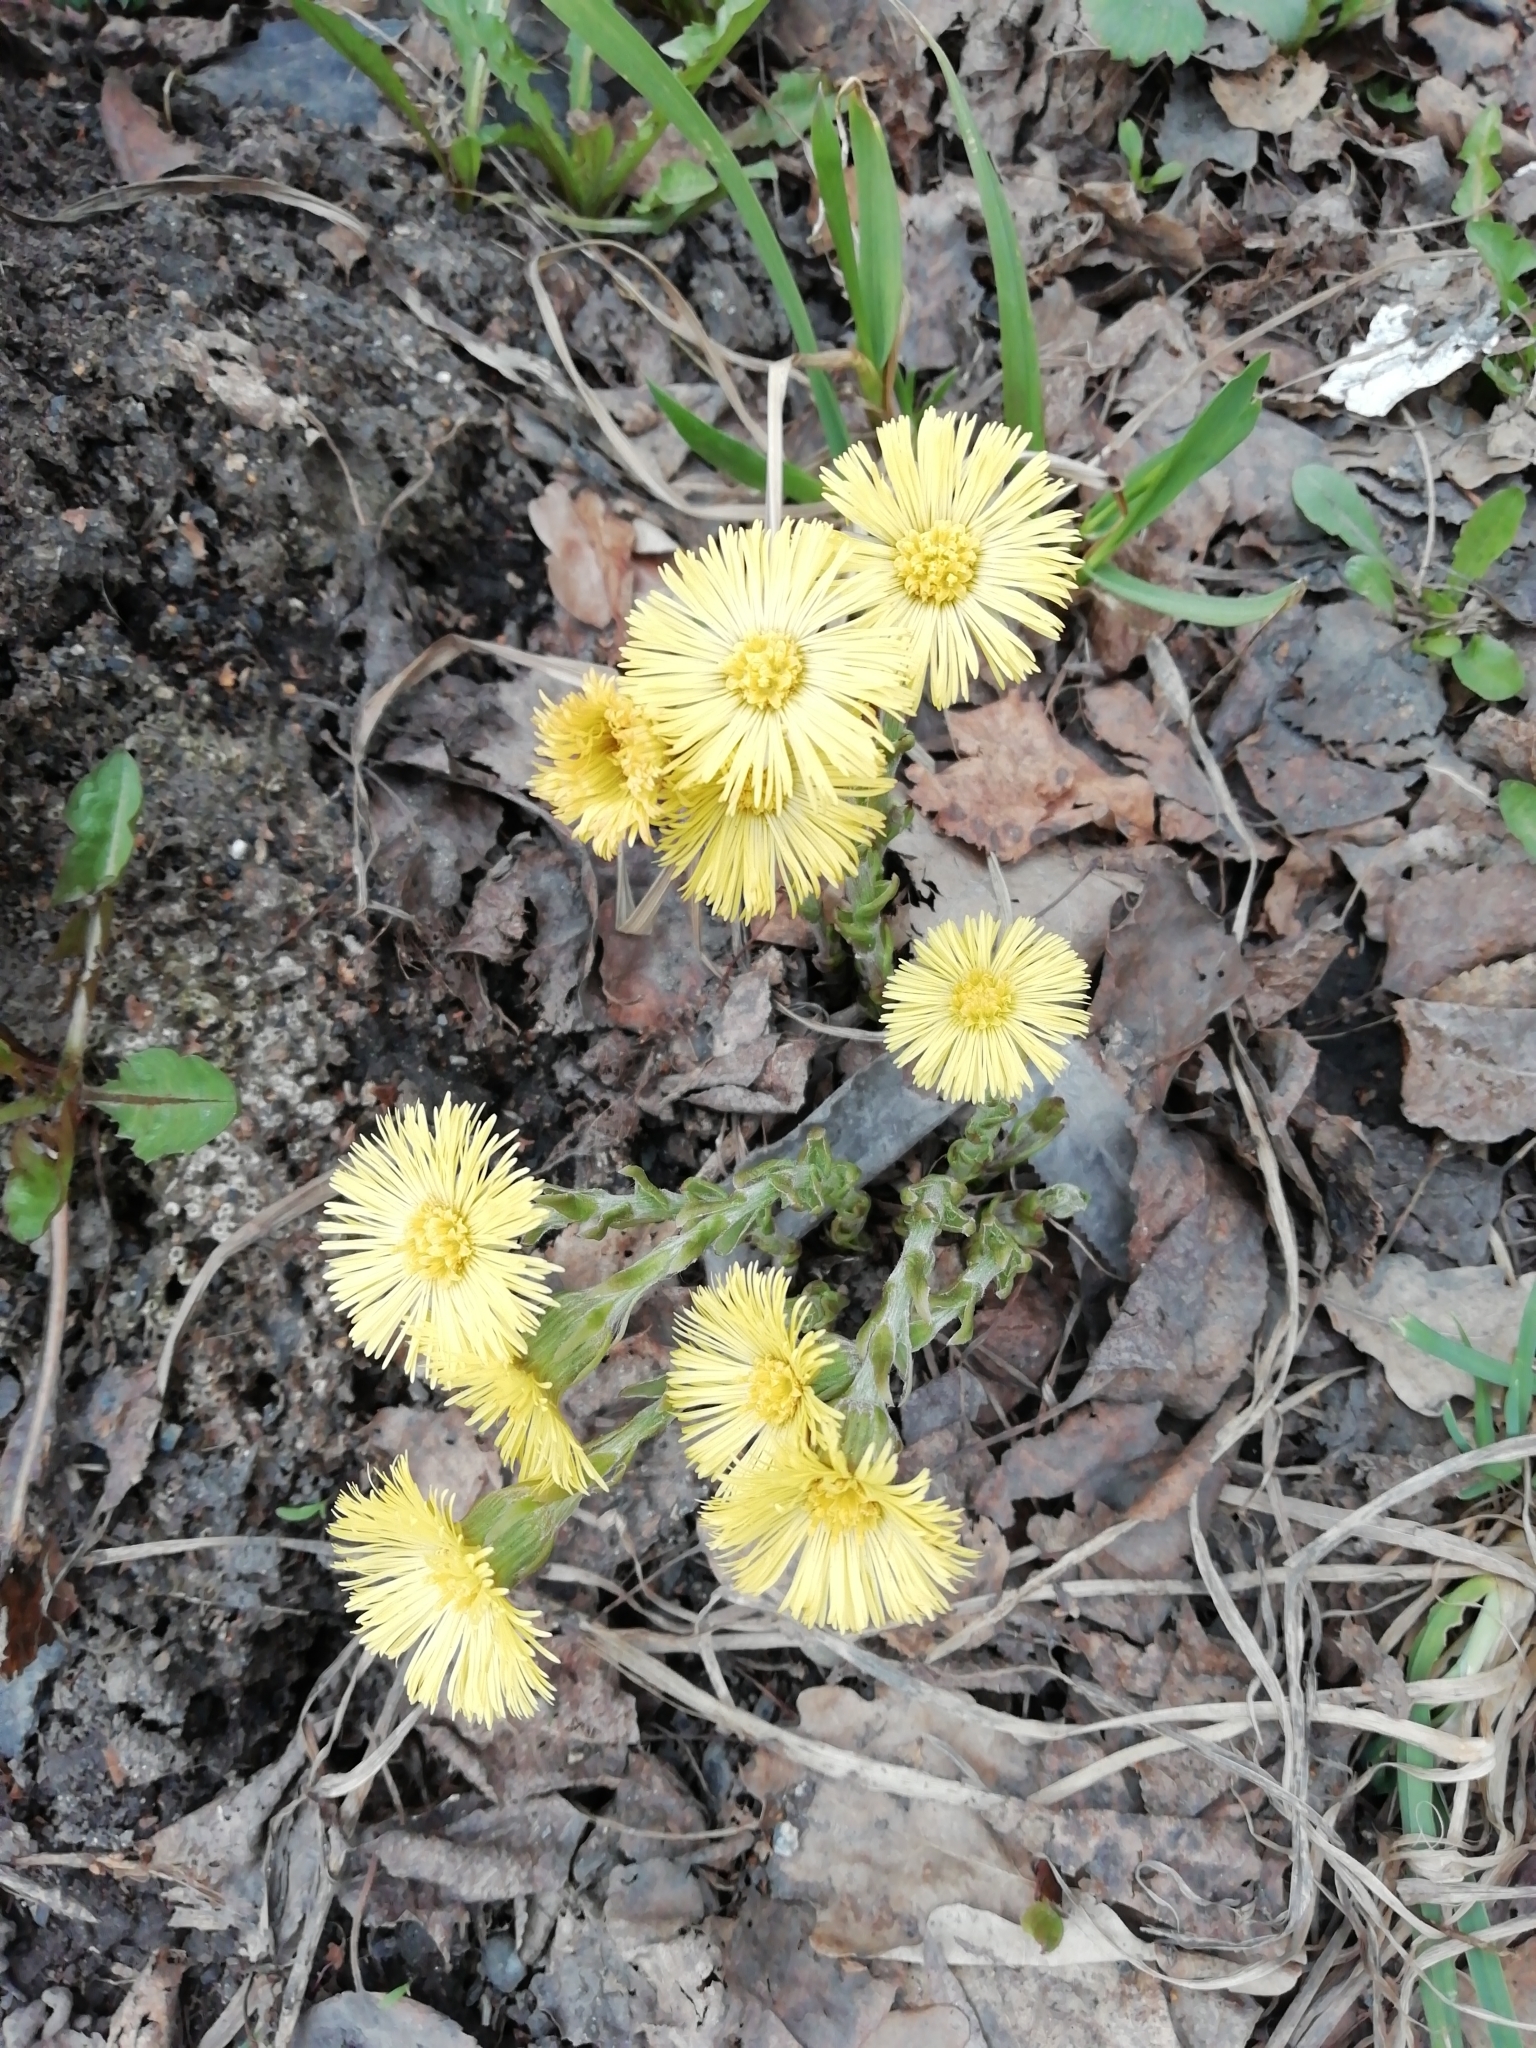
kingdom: Plantae
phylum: Tracheophyta
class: Magnoliopsida
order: Asterales
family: Asteraceae
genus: Tussilago
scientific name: Tussilago farfara
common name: Coltsfoot
